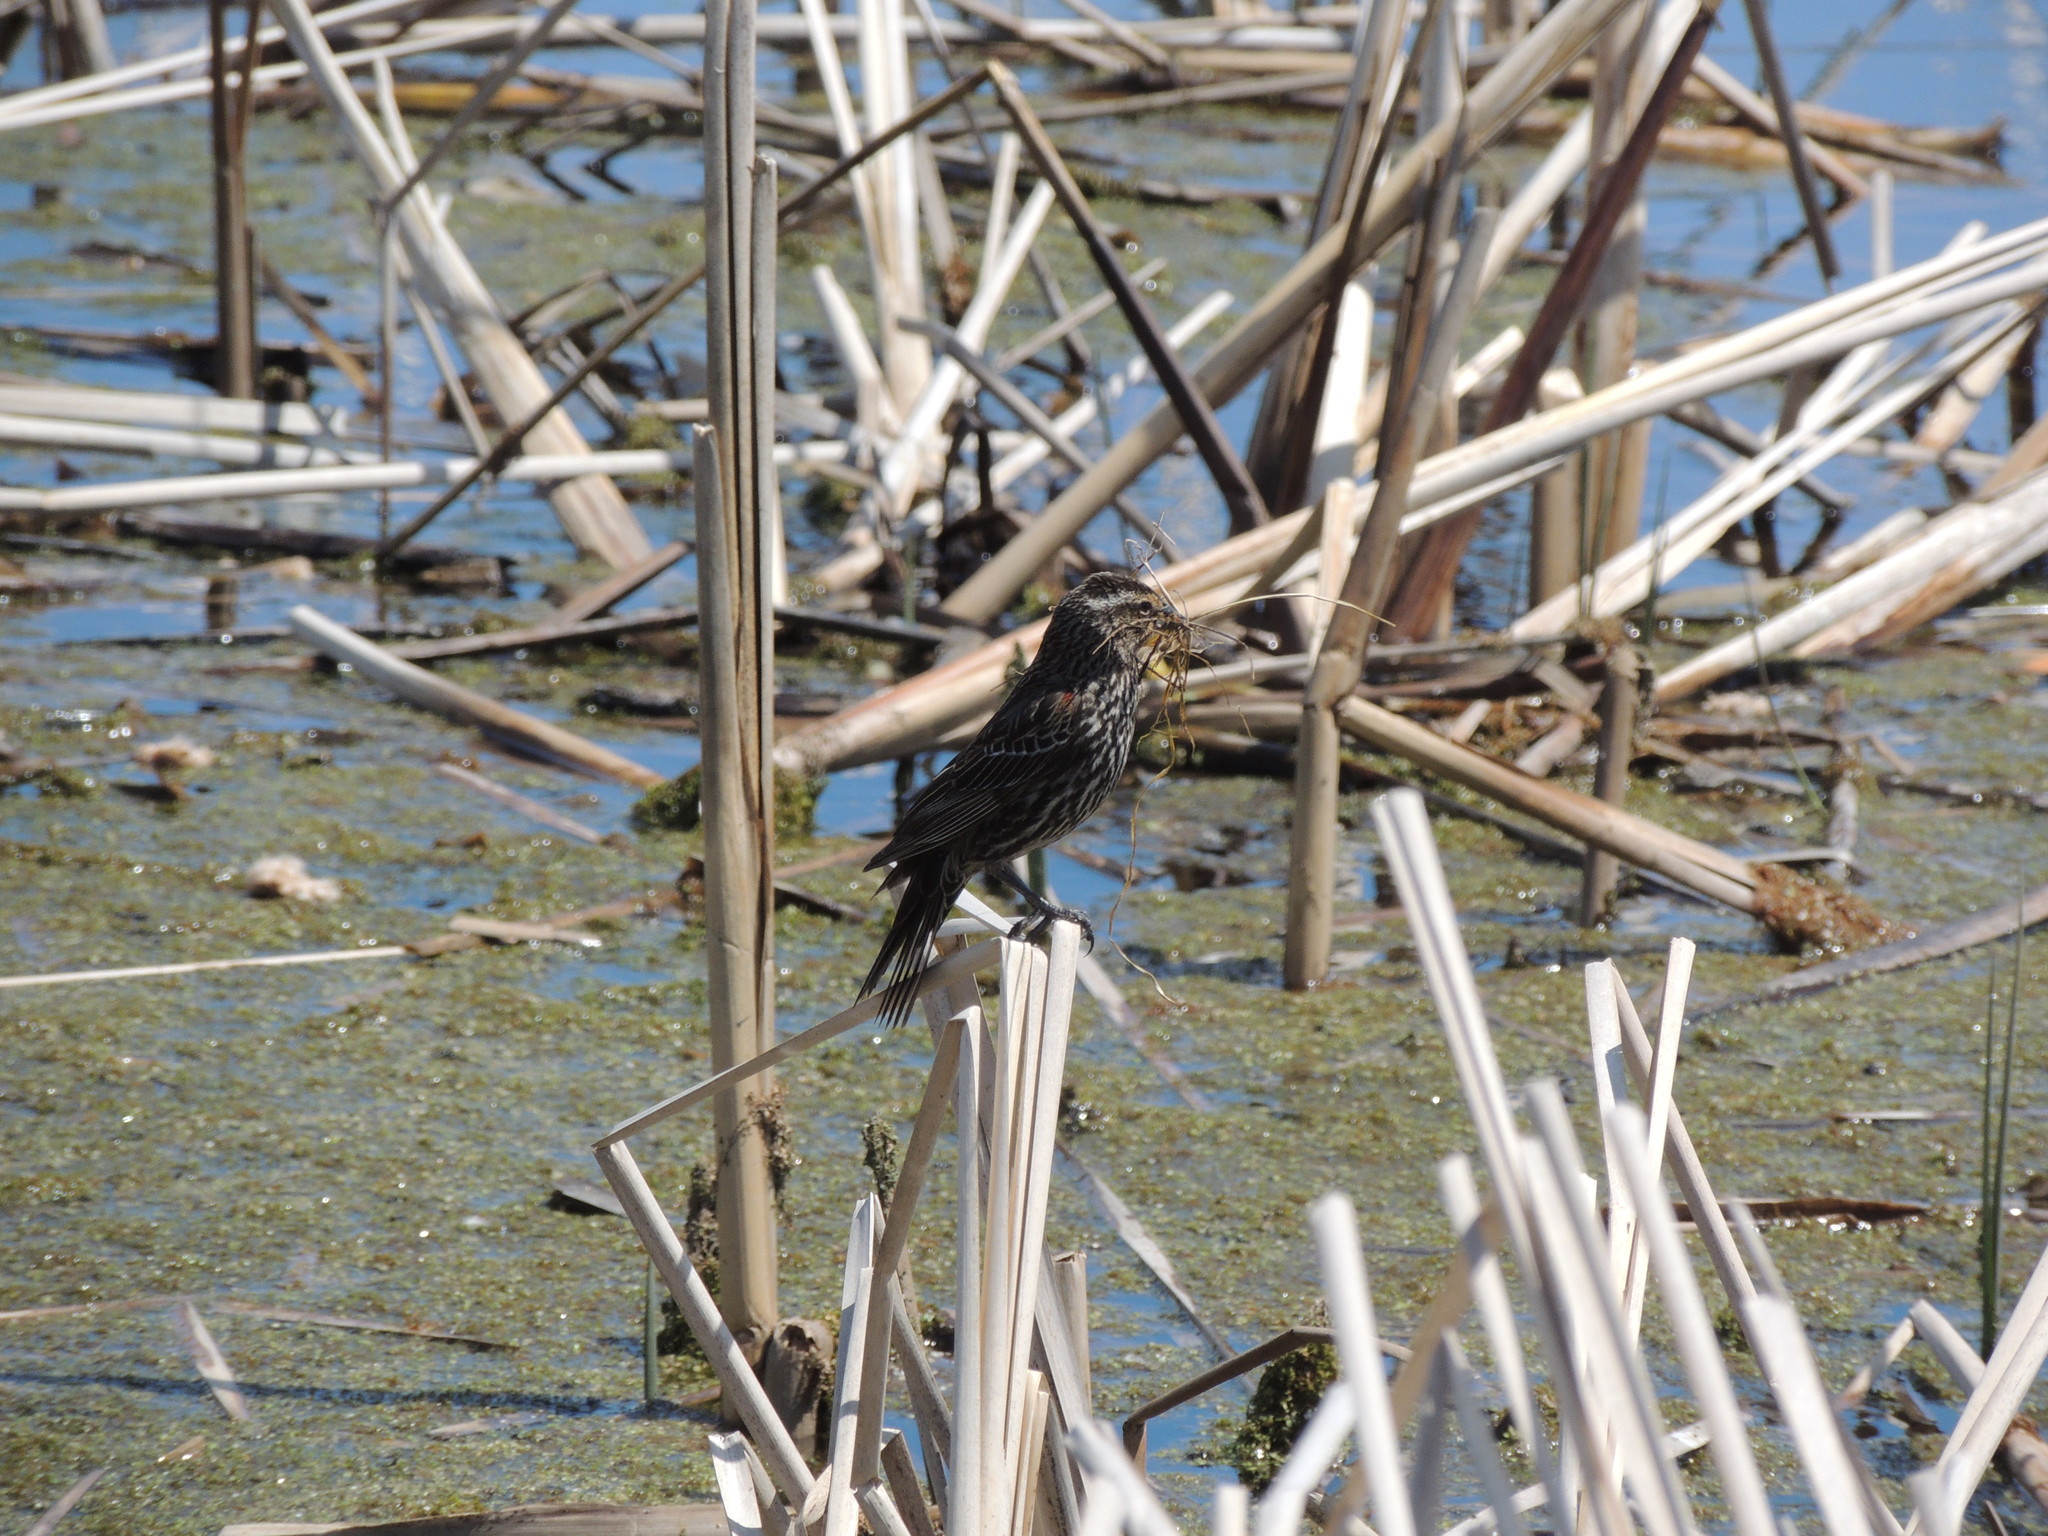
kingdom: Animalia
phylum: Chordata
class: Aves
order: Passeriformes
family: Icteridae
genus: Agelaius
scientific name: Agelaius phoeniceus
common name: Red-winged blackbird
